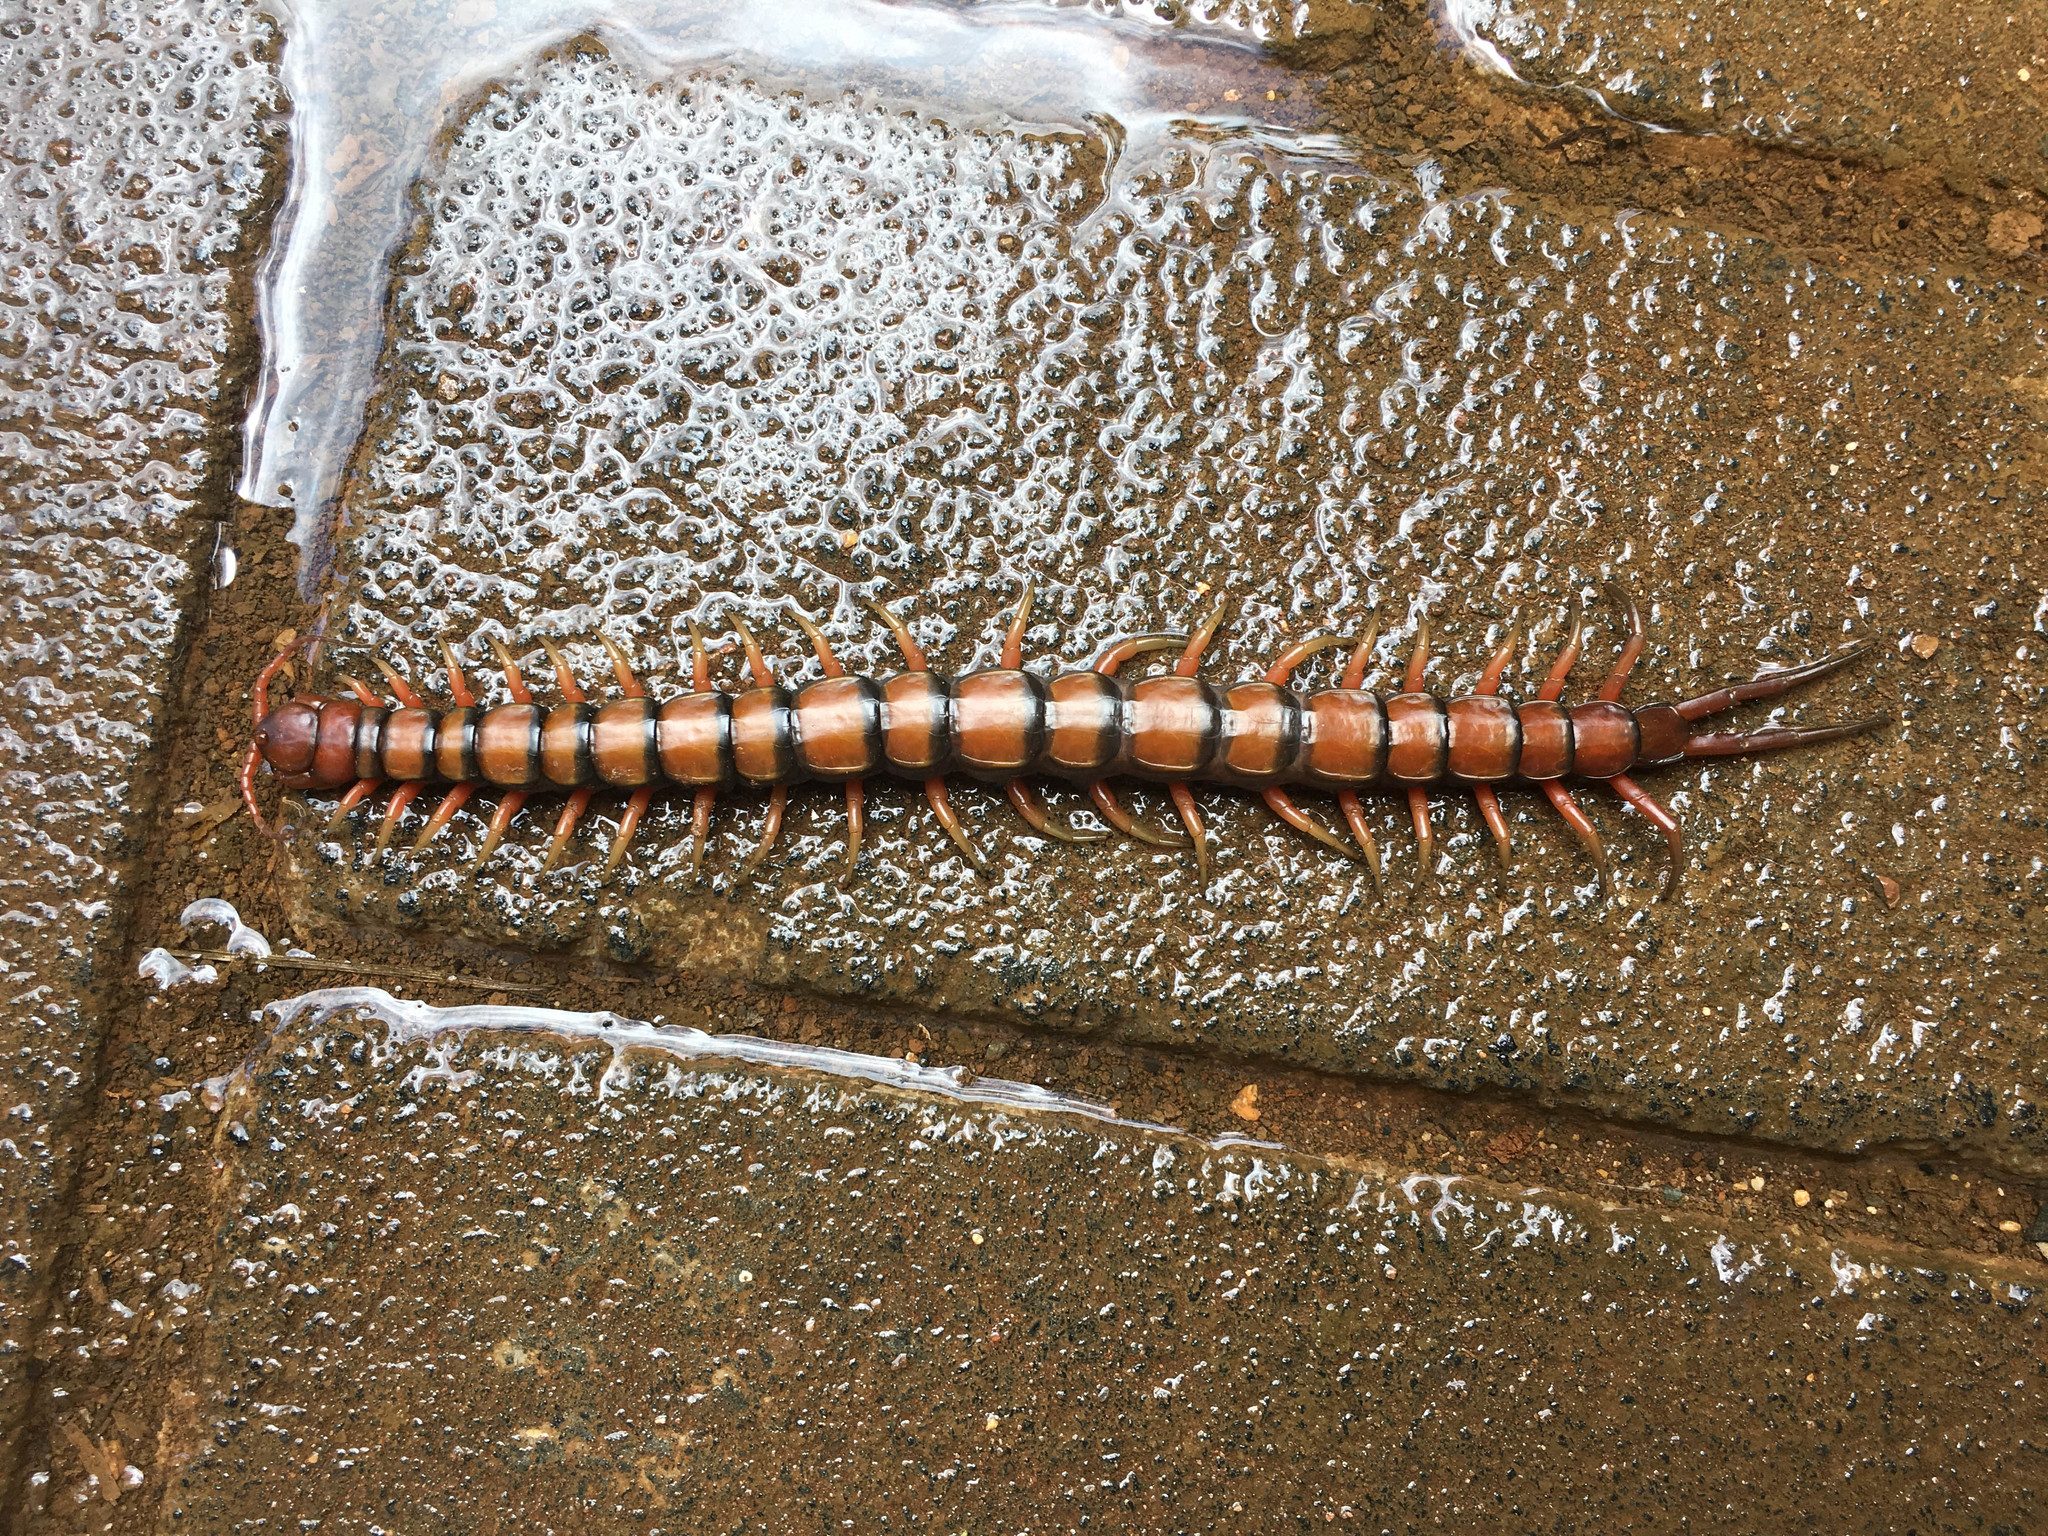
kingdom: Animalia
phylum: Arthropoda
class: Chilopoda
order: Scolopendromorpha
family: Scolopendridae
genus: Scolopendra
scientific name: Scolopendra subspinipes
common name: Centipede
